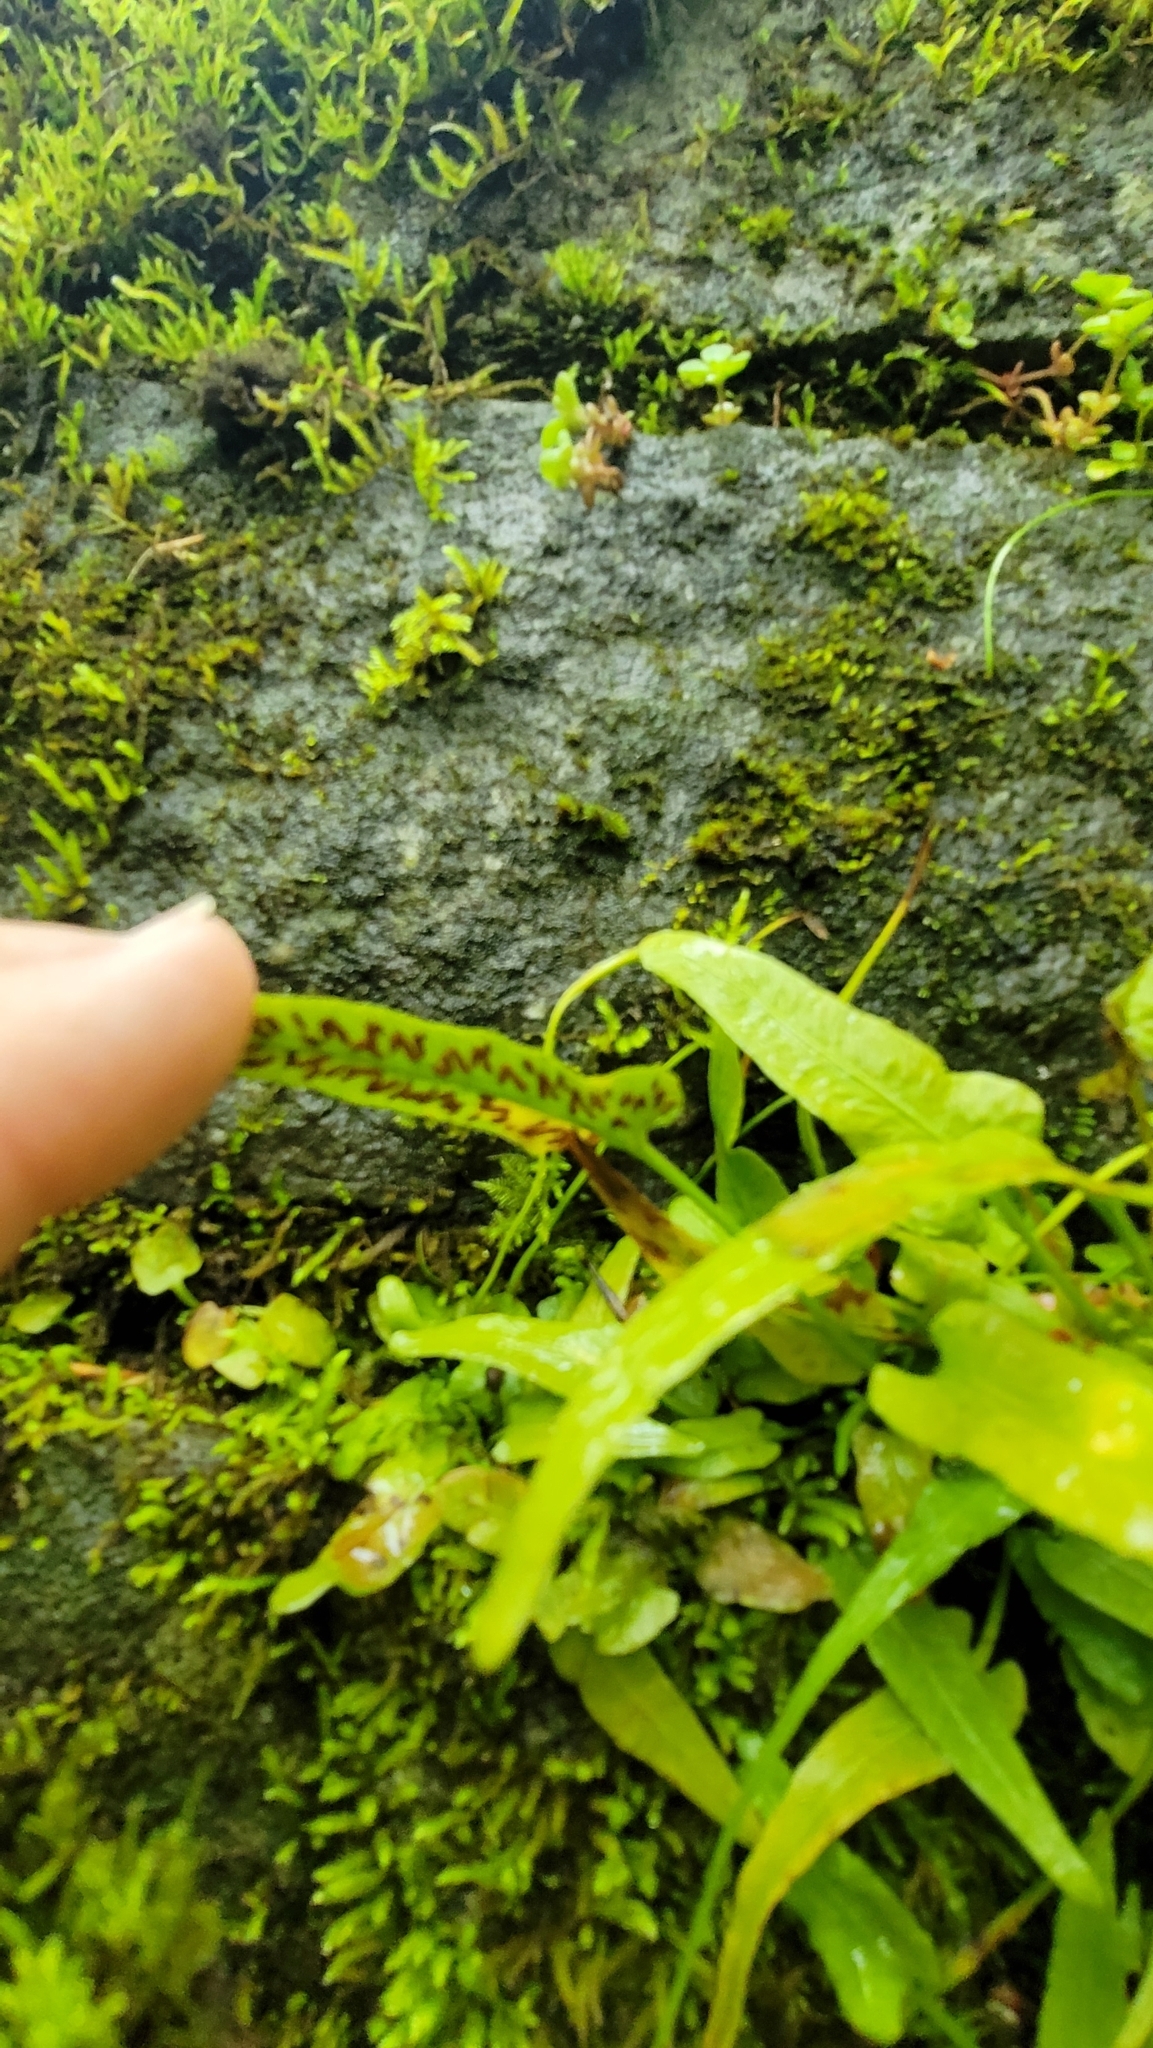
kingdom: Plantae
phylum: Tracheophyta
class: Polypodiopsida
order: Polypodiales
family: Aspleniaceae
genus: Asplenium
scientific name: Asplenium rhizophyllum
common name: Walking fern
